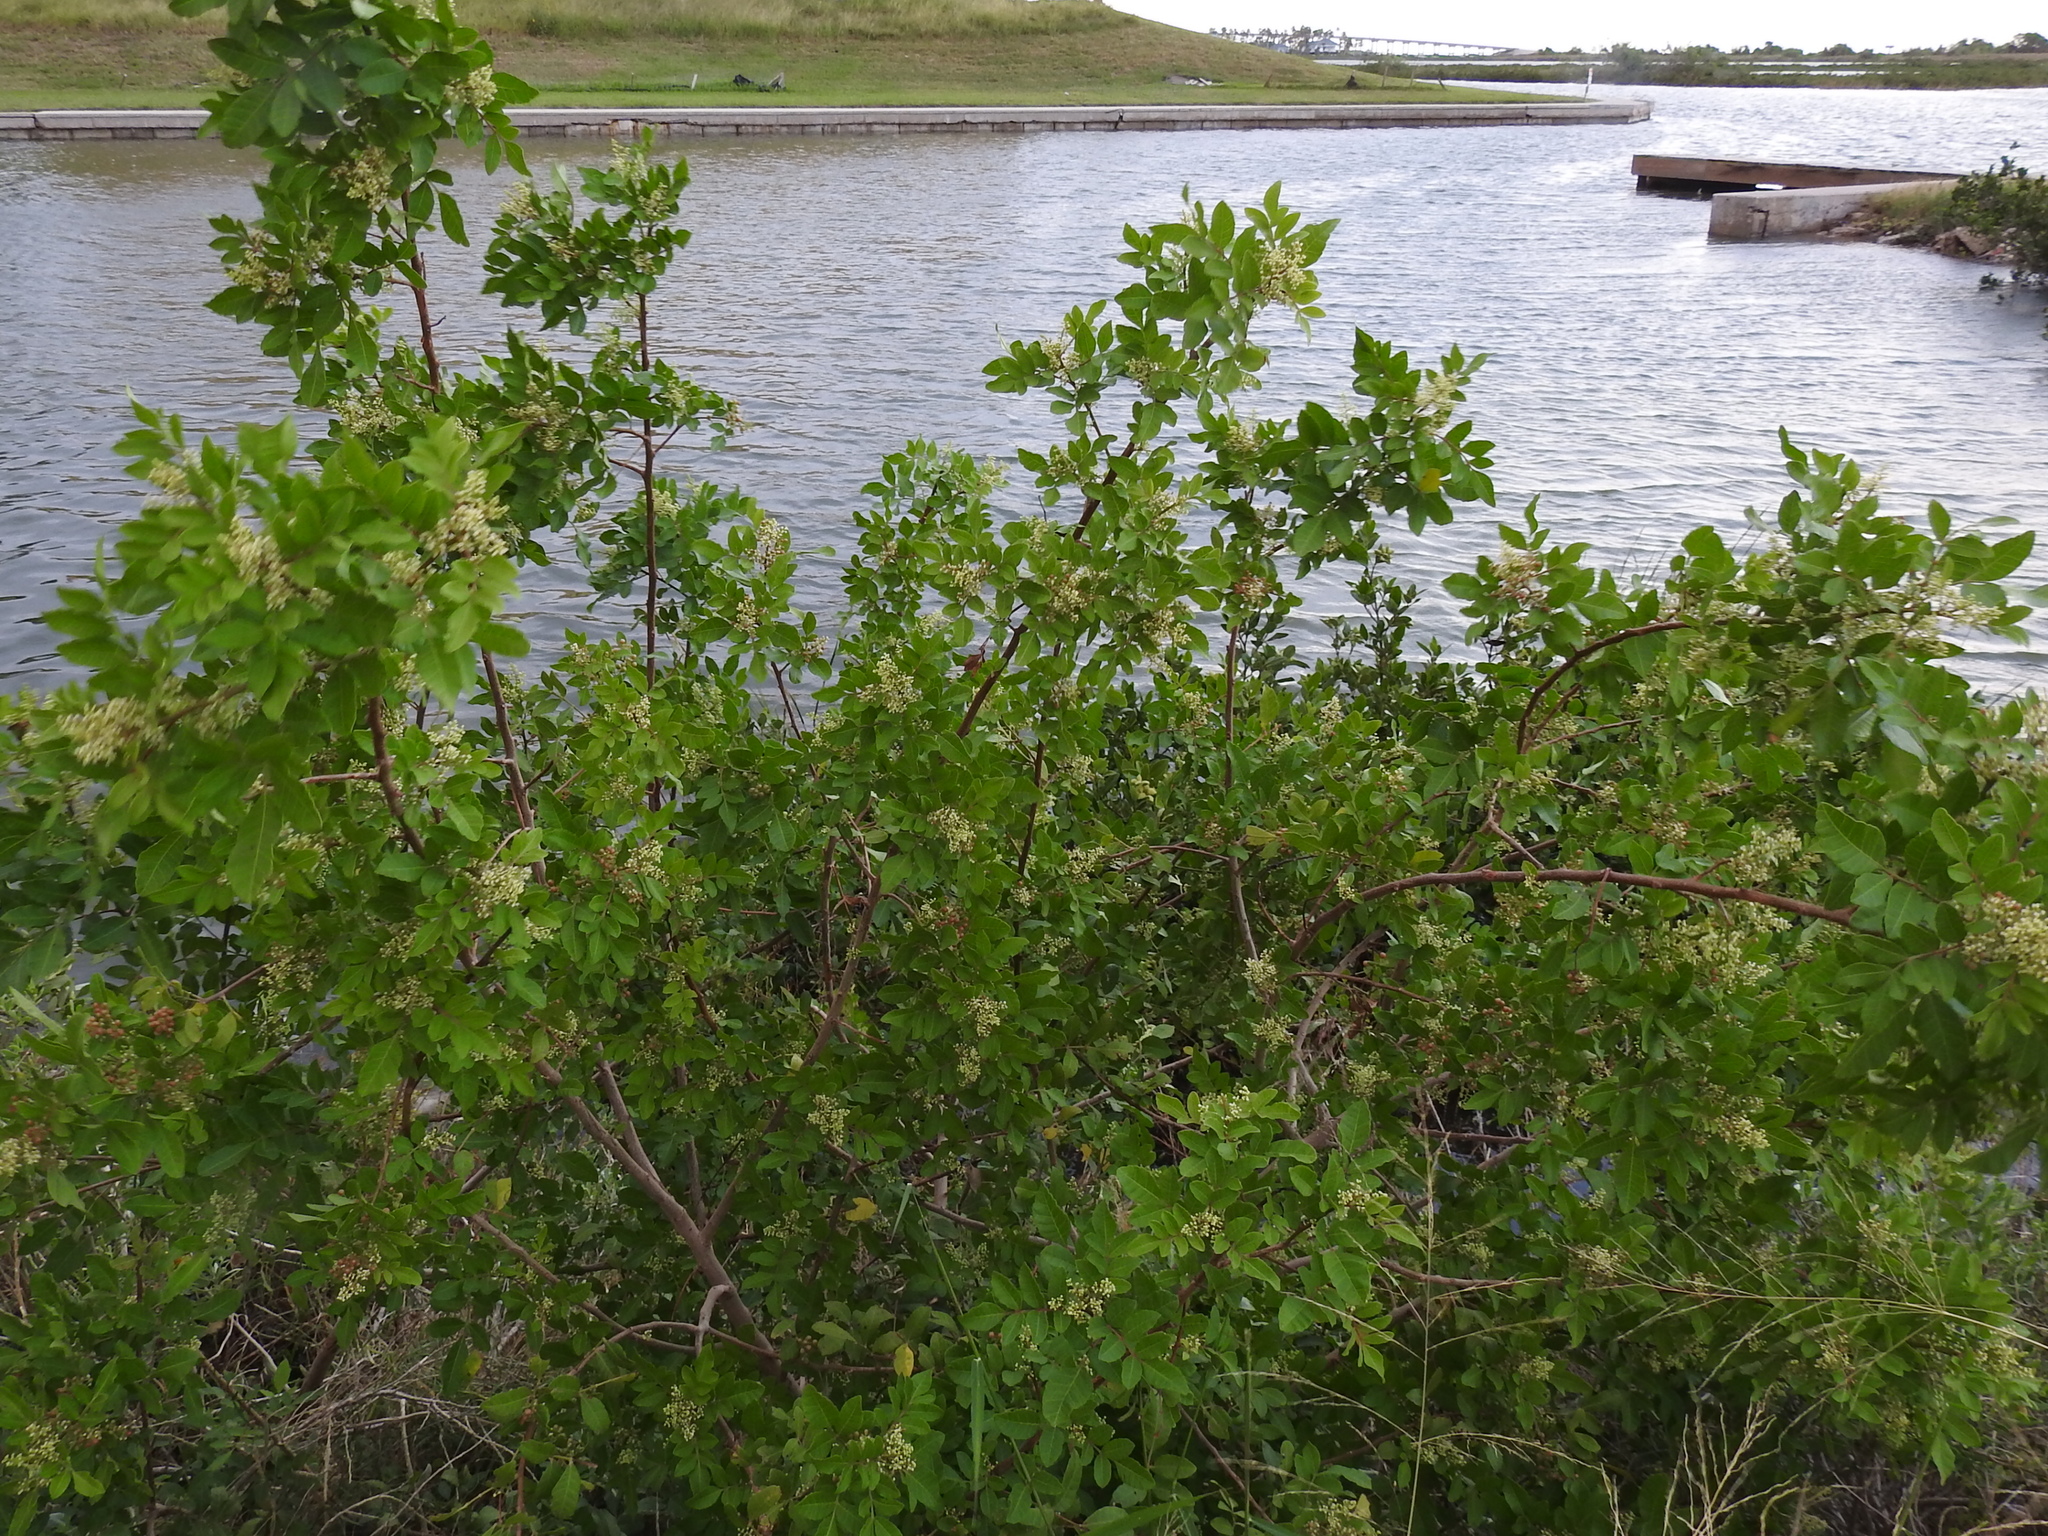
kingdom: Plantae
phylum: Tracheophyta
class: Magnoliopsida
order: Sapindales
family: Anacardiaceae
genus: Schinus
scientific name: Schinus terebinthifolia
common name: Brazilian peppertree
